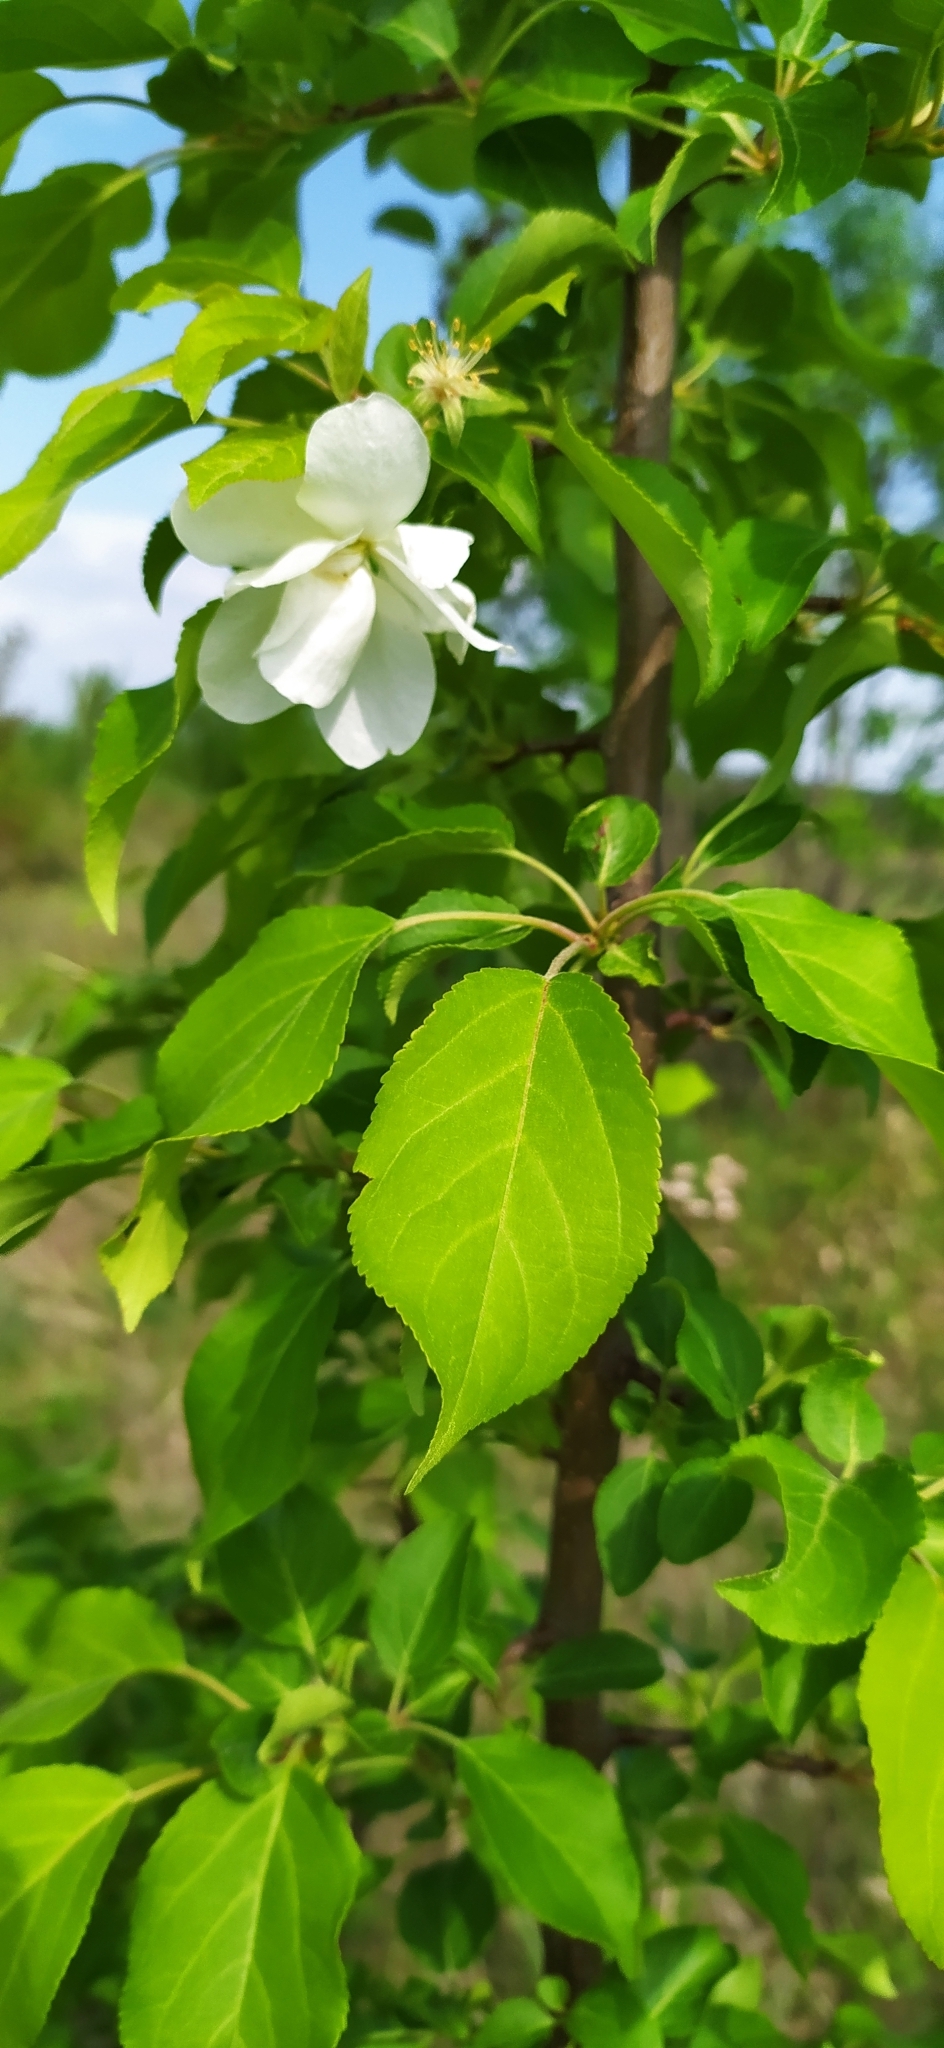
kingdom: Plantae
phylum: Tracheophyta
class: Magnoliopsida
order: Rosales
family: Rosaceae
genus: Malus
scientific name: Malus baccata
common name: Siberian crab
